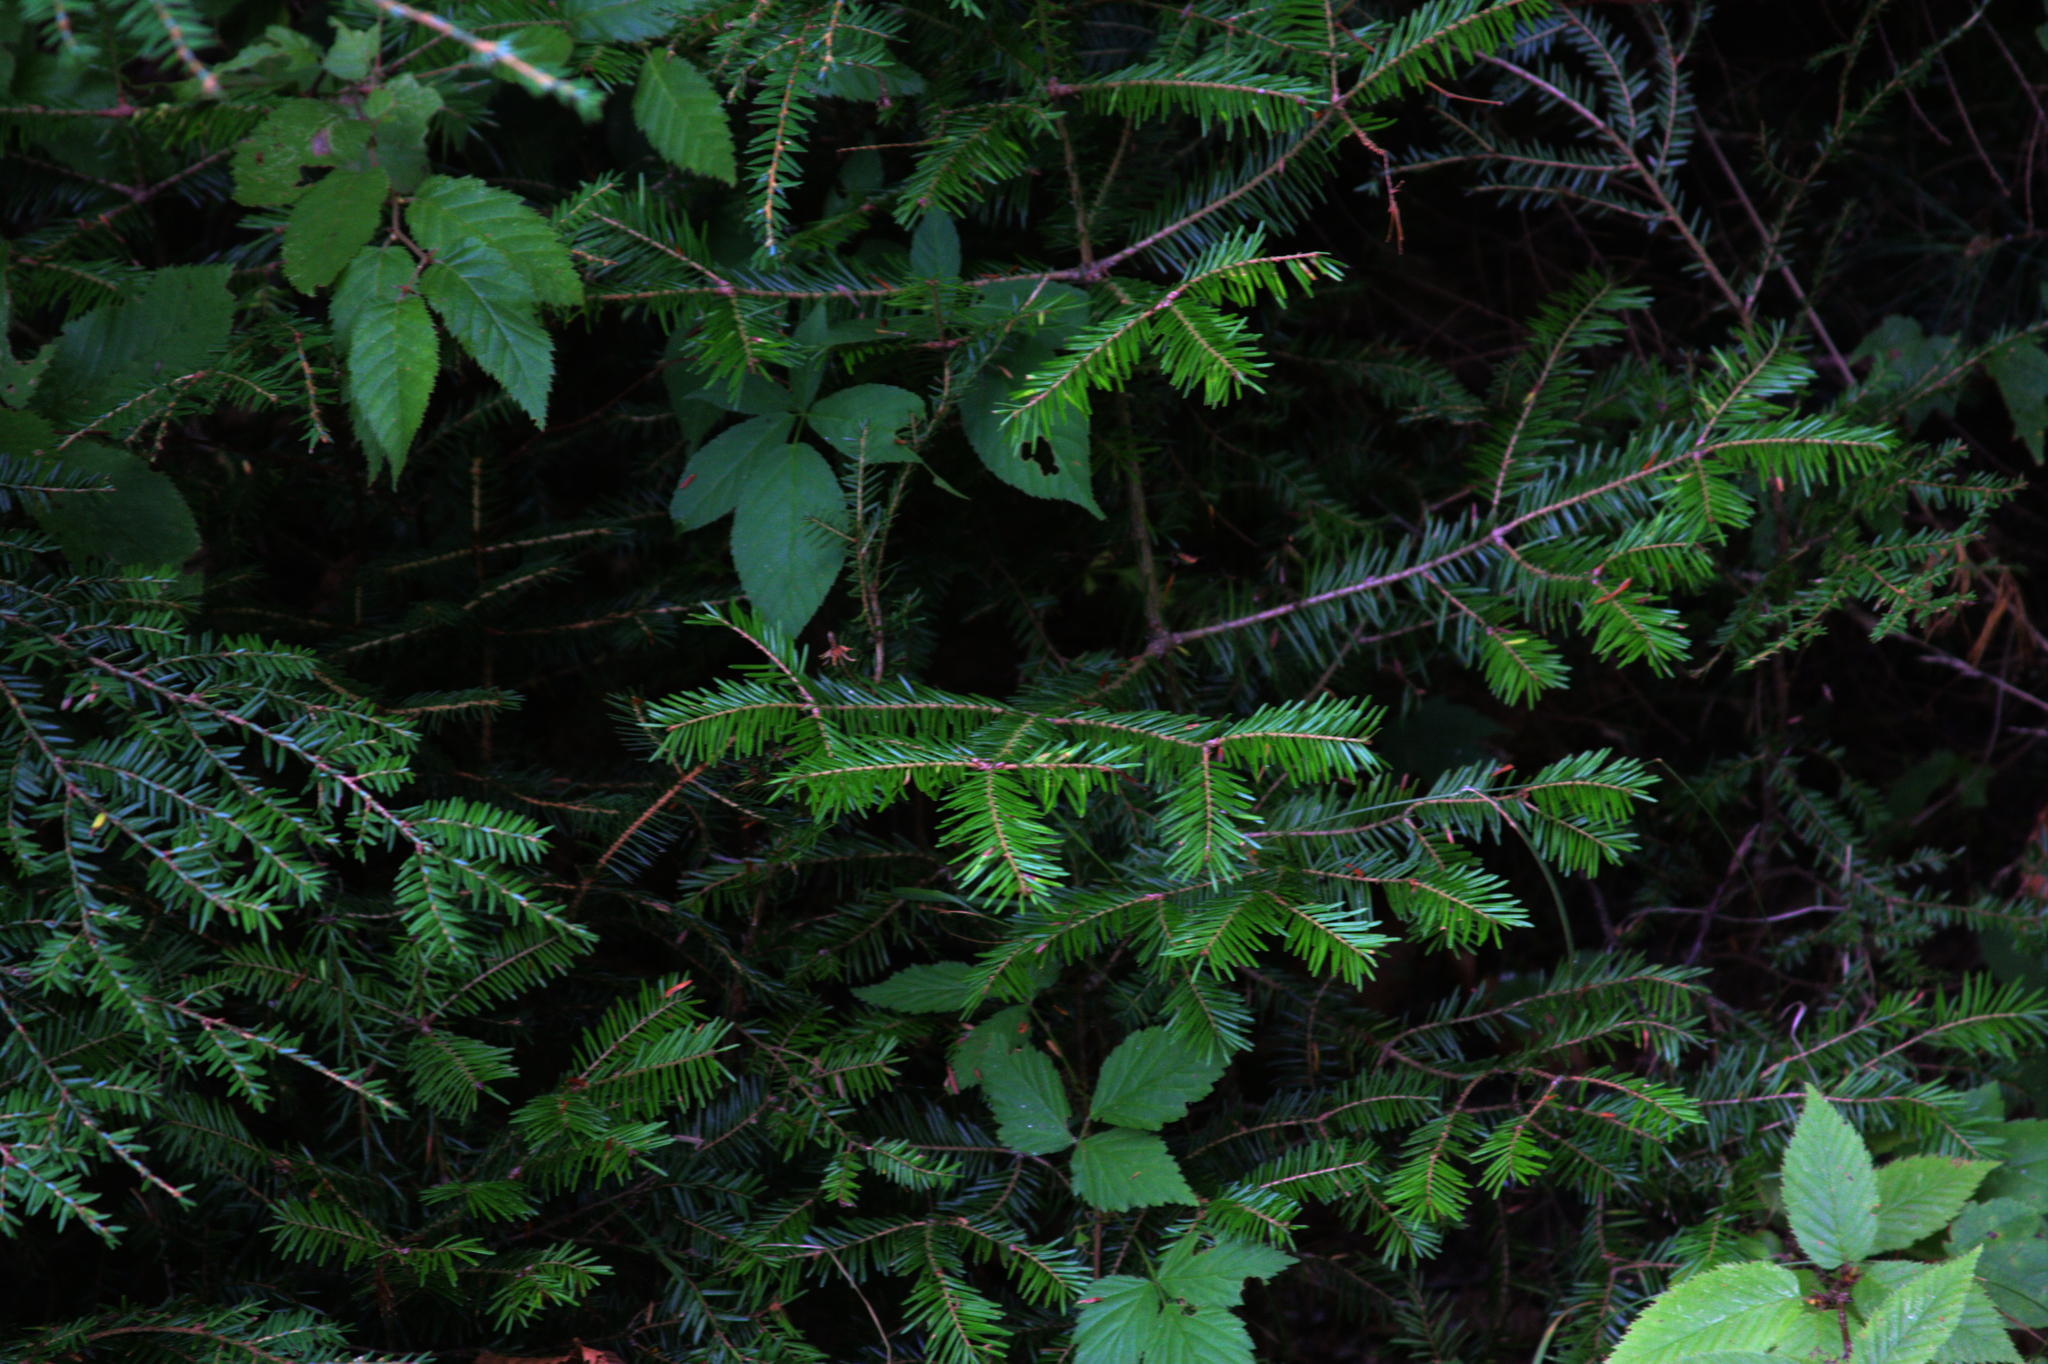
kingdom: Plantae
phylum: Tracheophyta
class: Pinopsida
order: Pinales
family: Pinaceae
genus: Abies
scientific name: Abies balsamea
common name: Balsam fir
